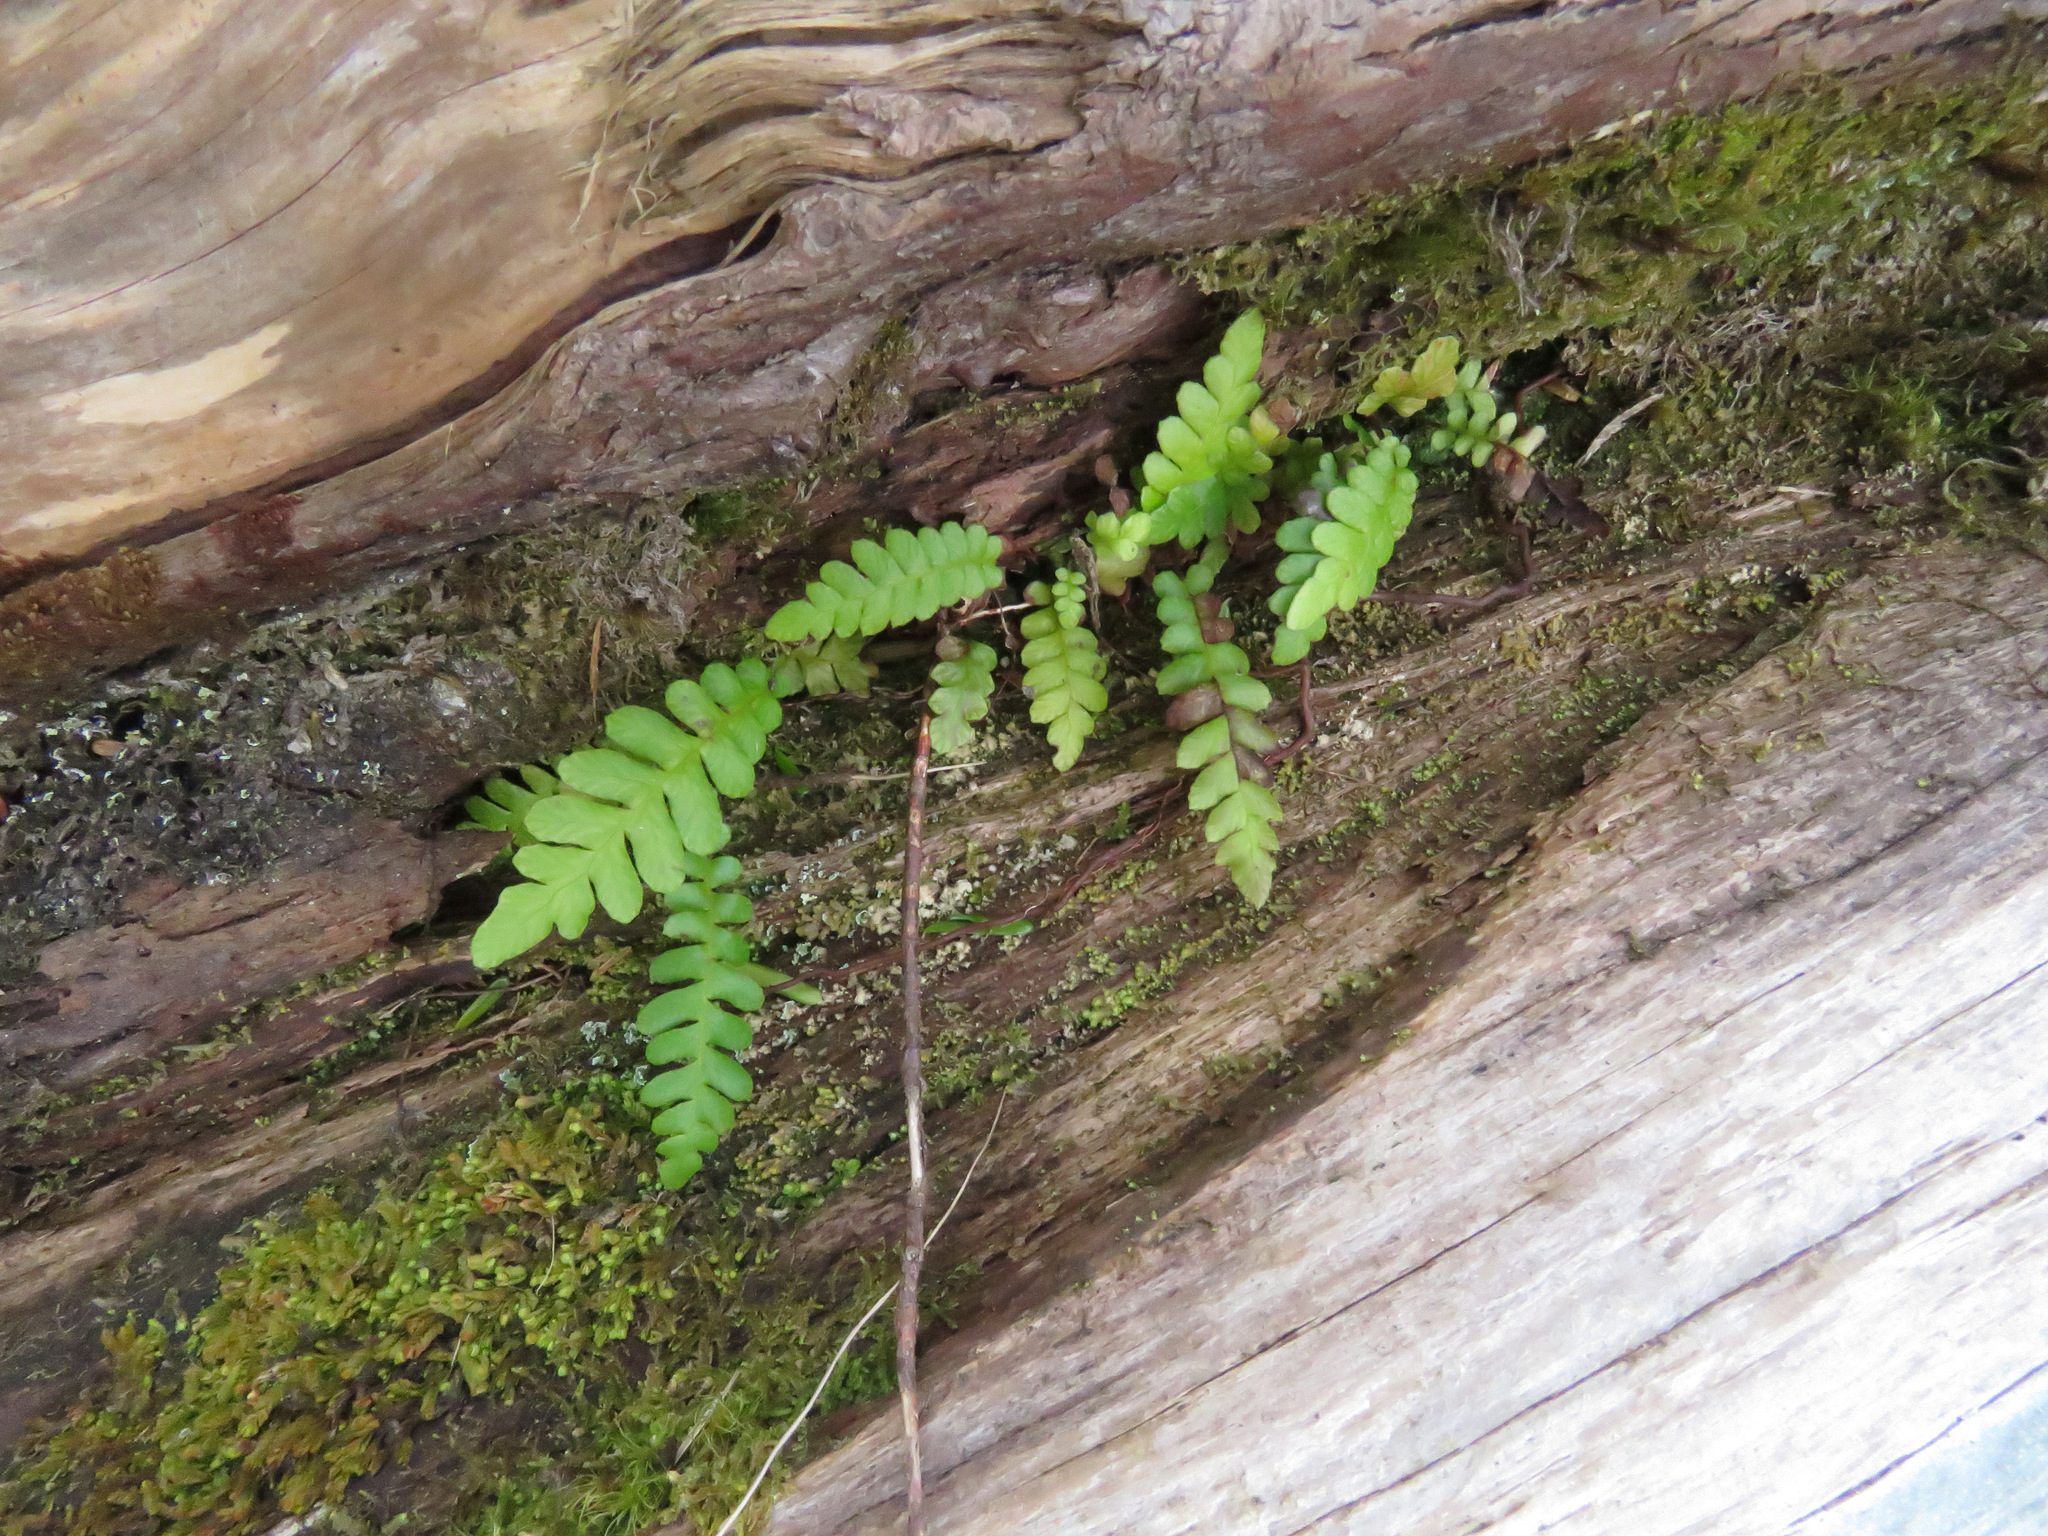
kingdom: Plantae
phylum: Tracheophyta
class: Polypodiopsida
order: Polypodiales
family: Blechnaceae
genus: Struthiopteris
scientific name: Struthiopteris spicant
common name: Deer fern
